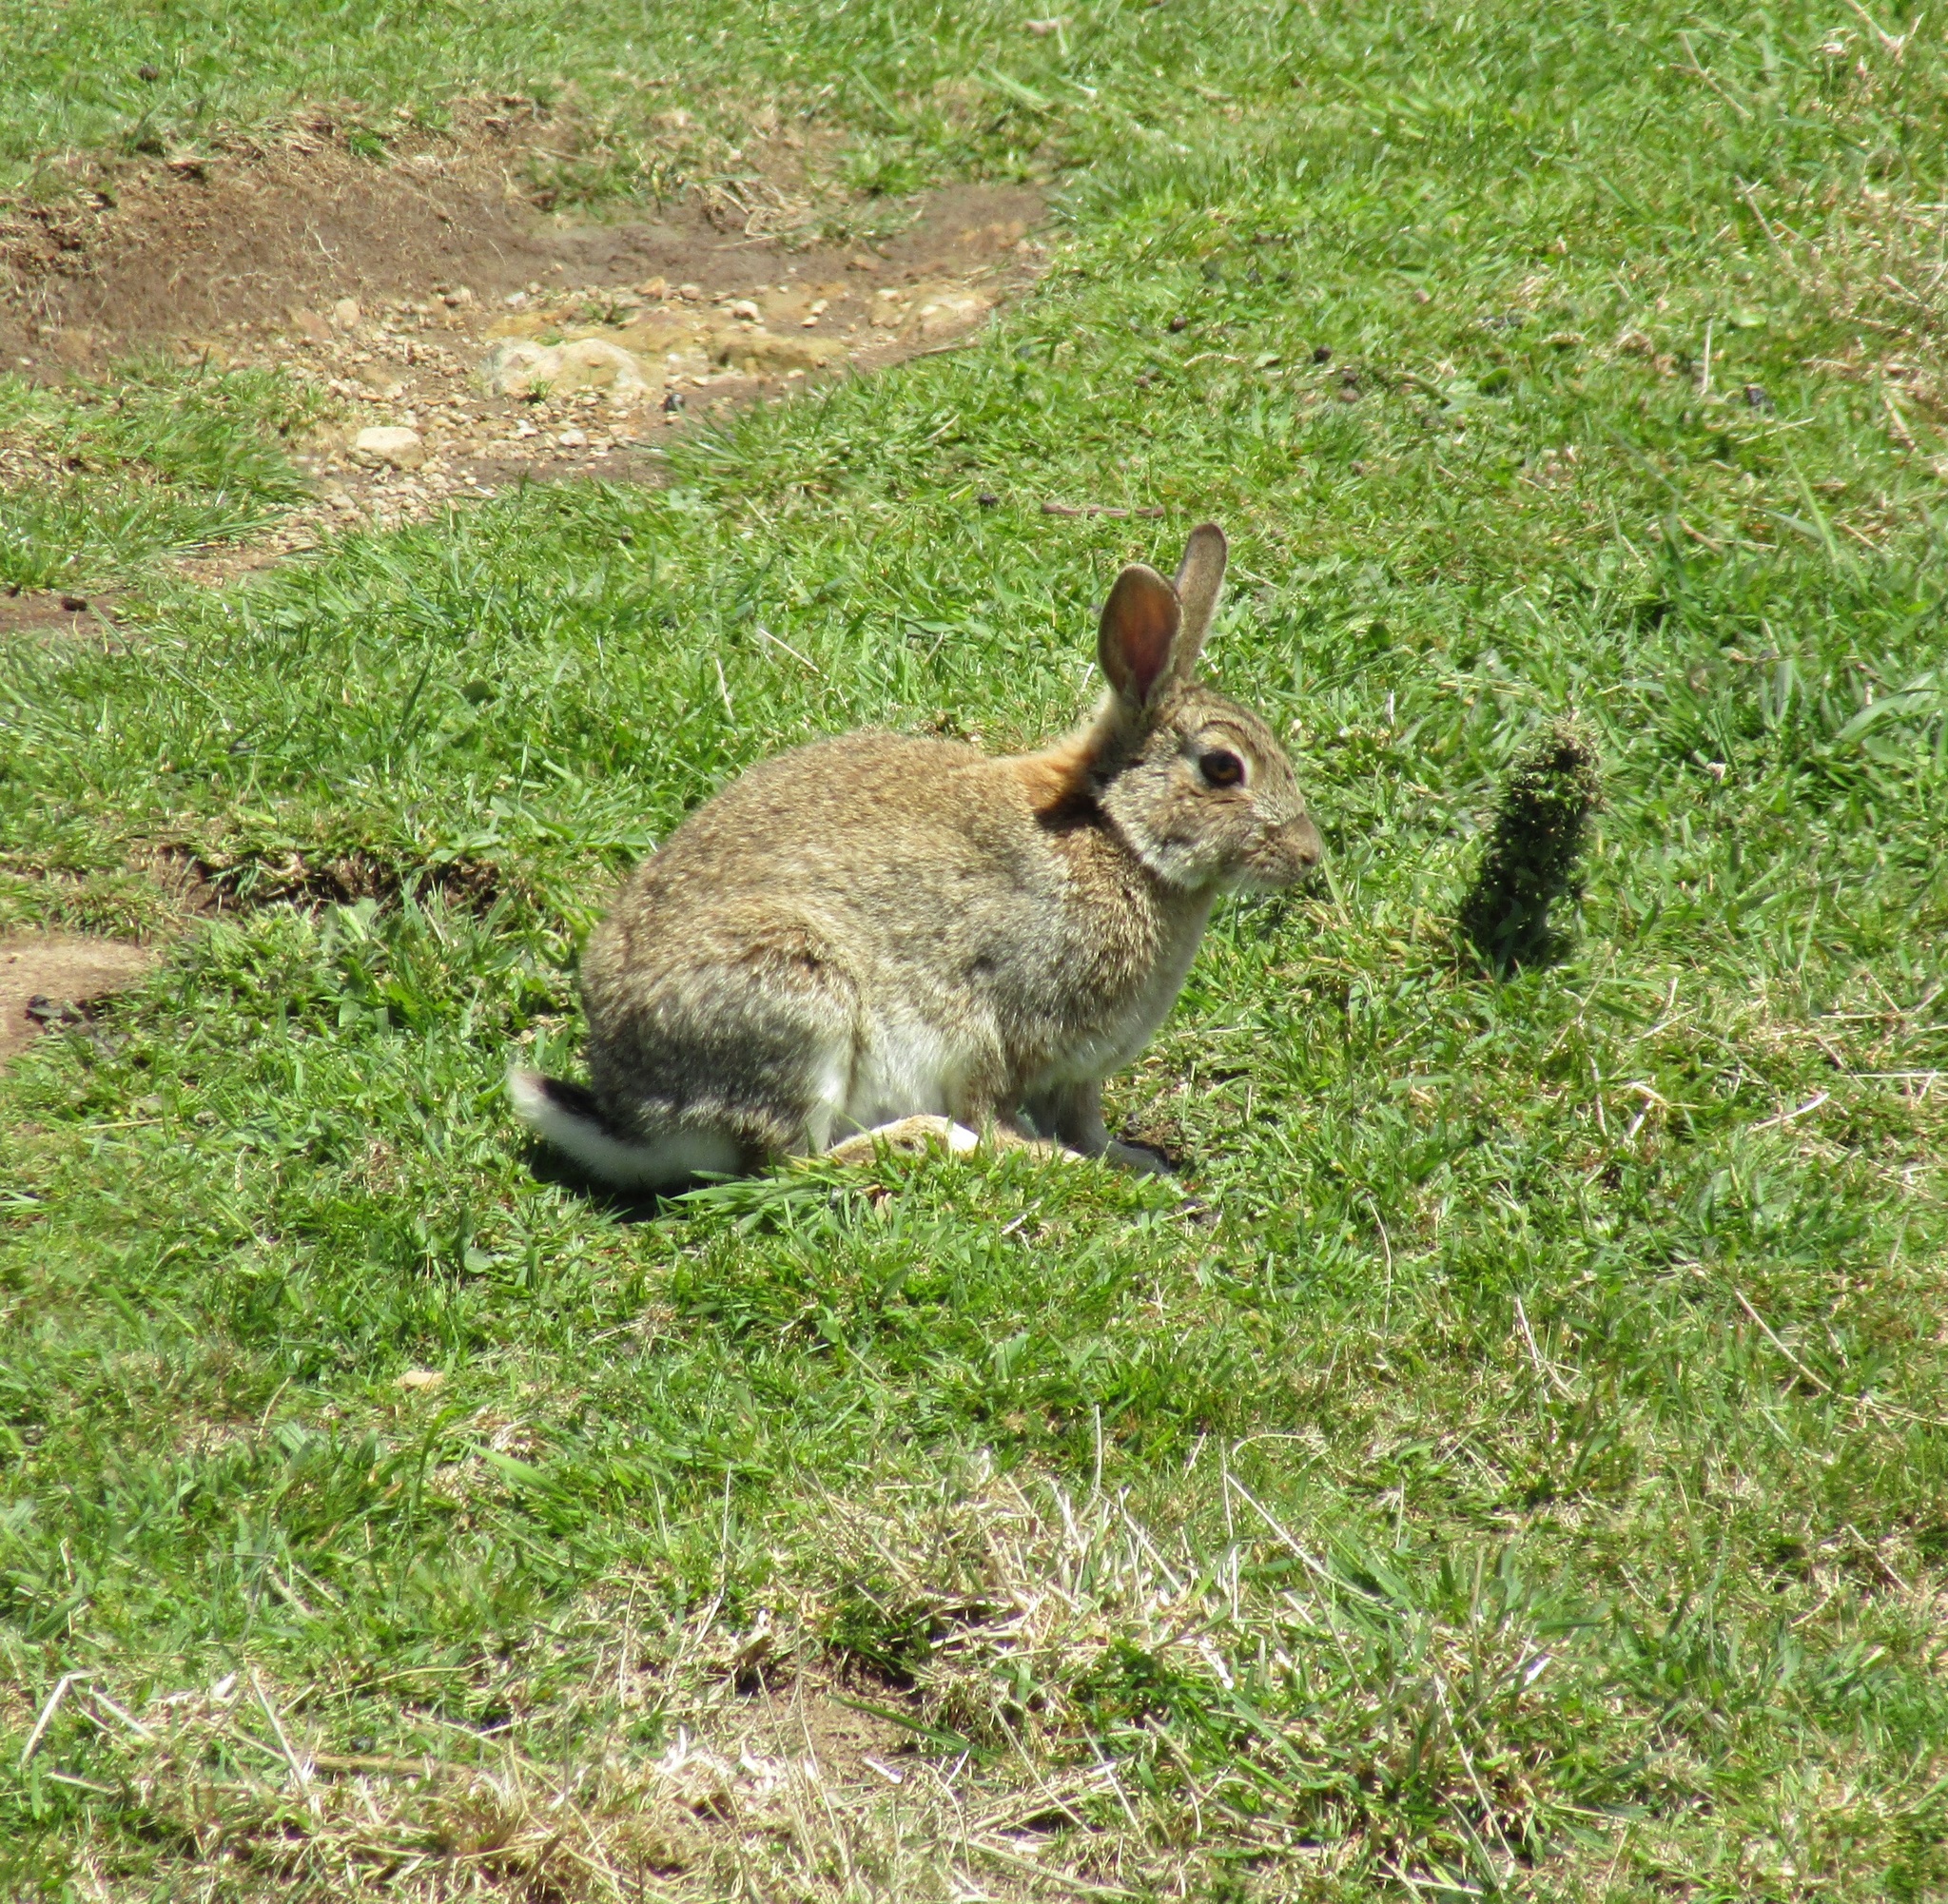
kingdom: Animalia
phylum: Chordata
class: Mammalia
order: Lagomorpha
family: Leporidae
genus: Oryctolagus
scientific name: Oryctolagus cuniculus
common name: European rabbit
